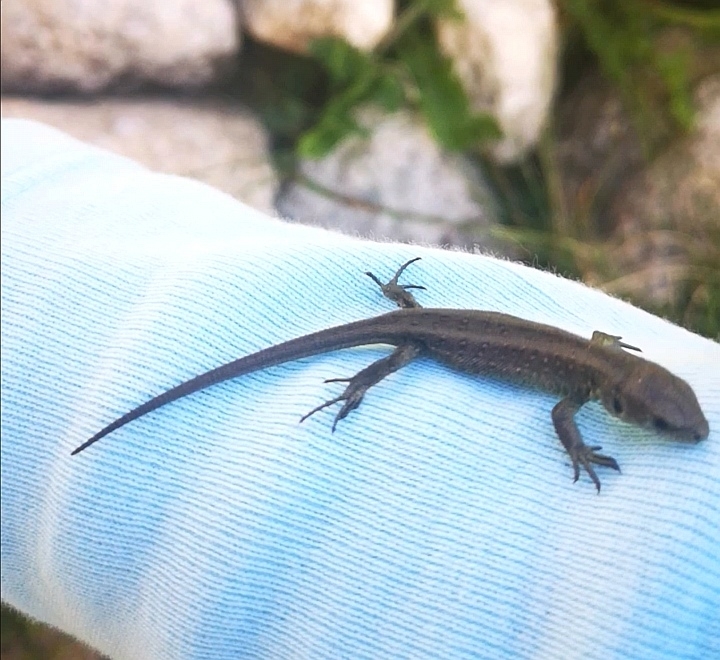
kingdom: Animalia
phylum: Chordata
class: Squamata
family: Lacertidae
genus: Lacerta
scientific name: Lacerta agilis
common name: Sand lizard
